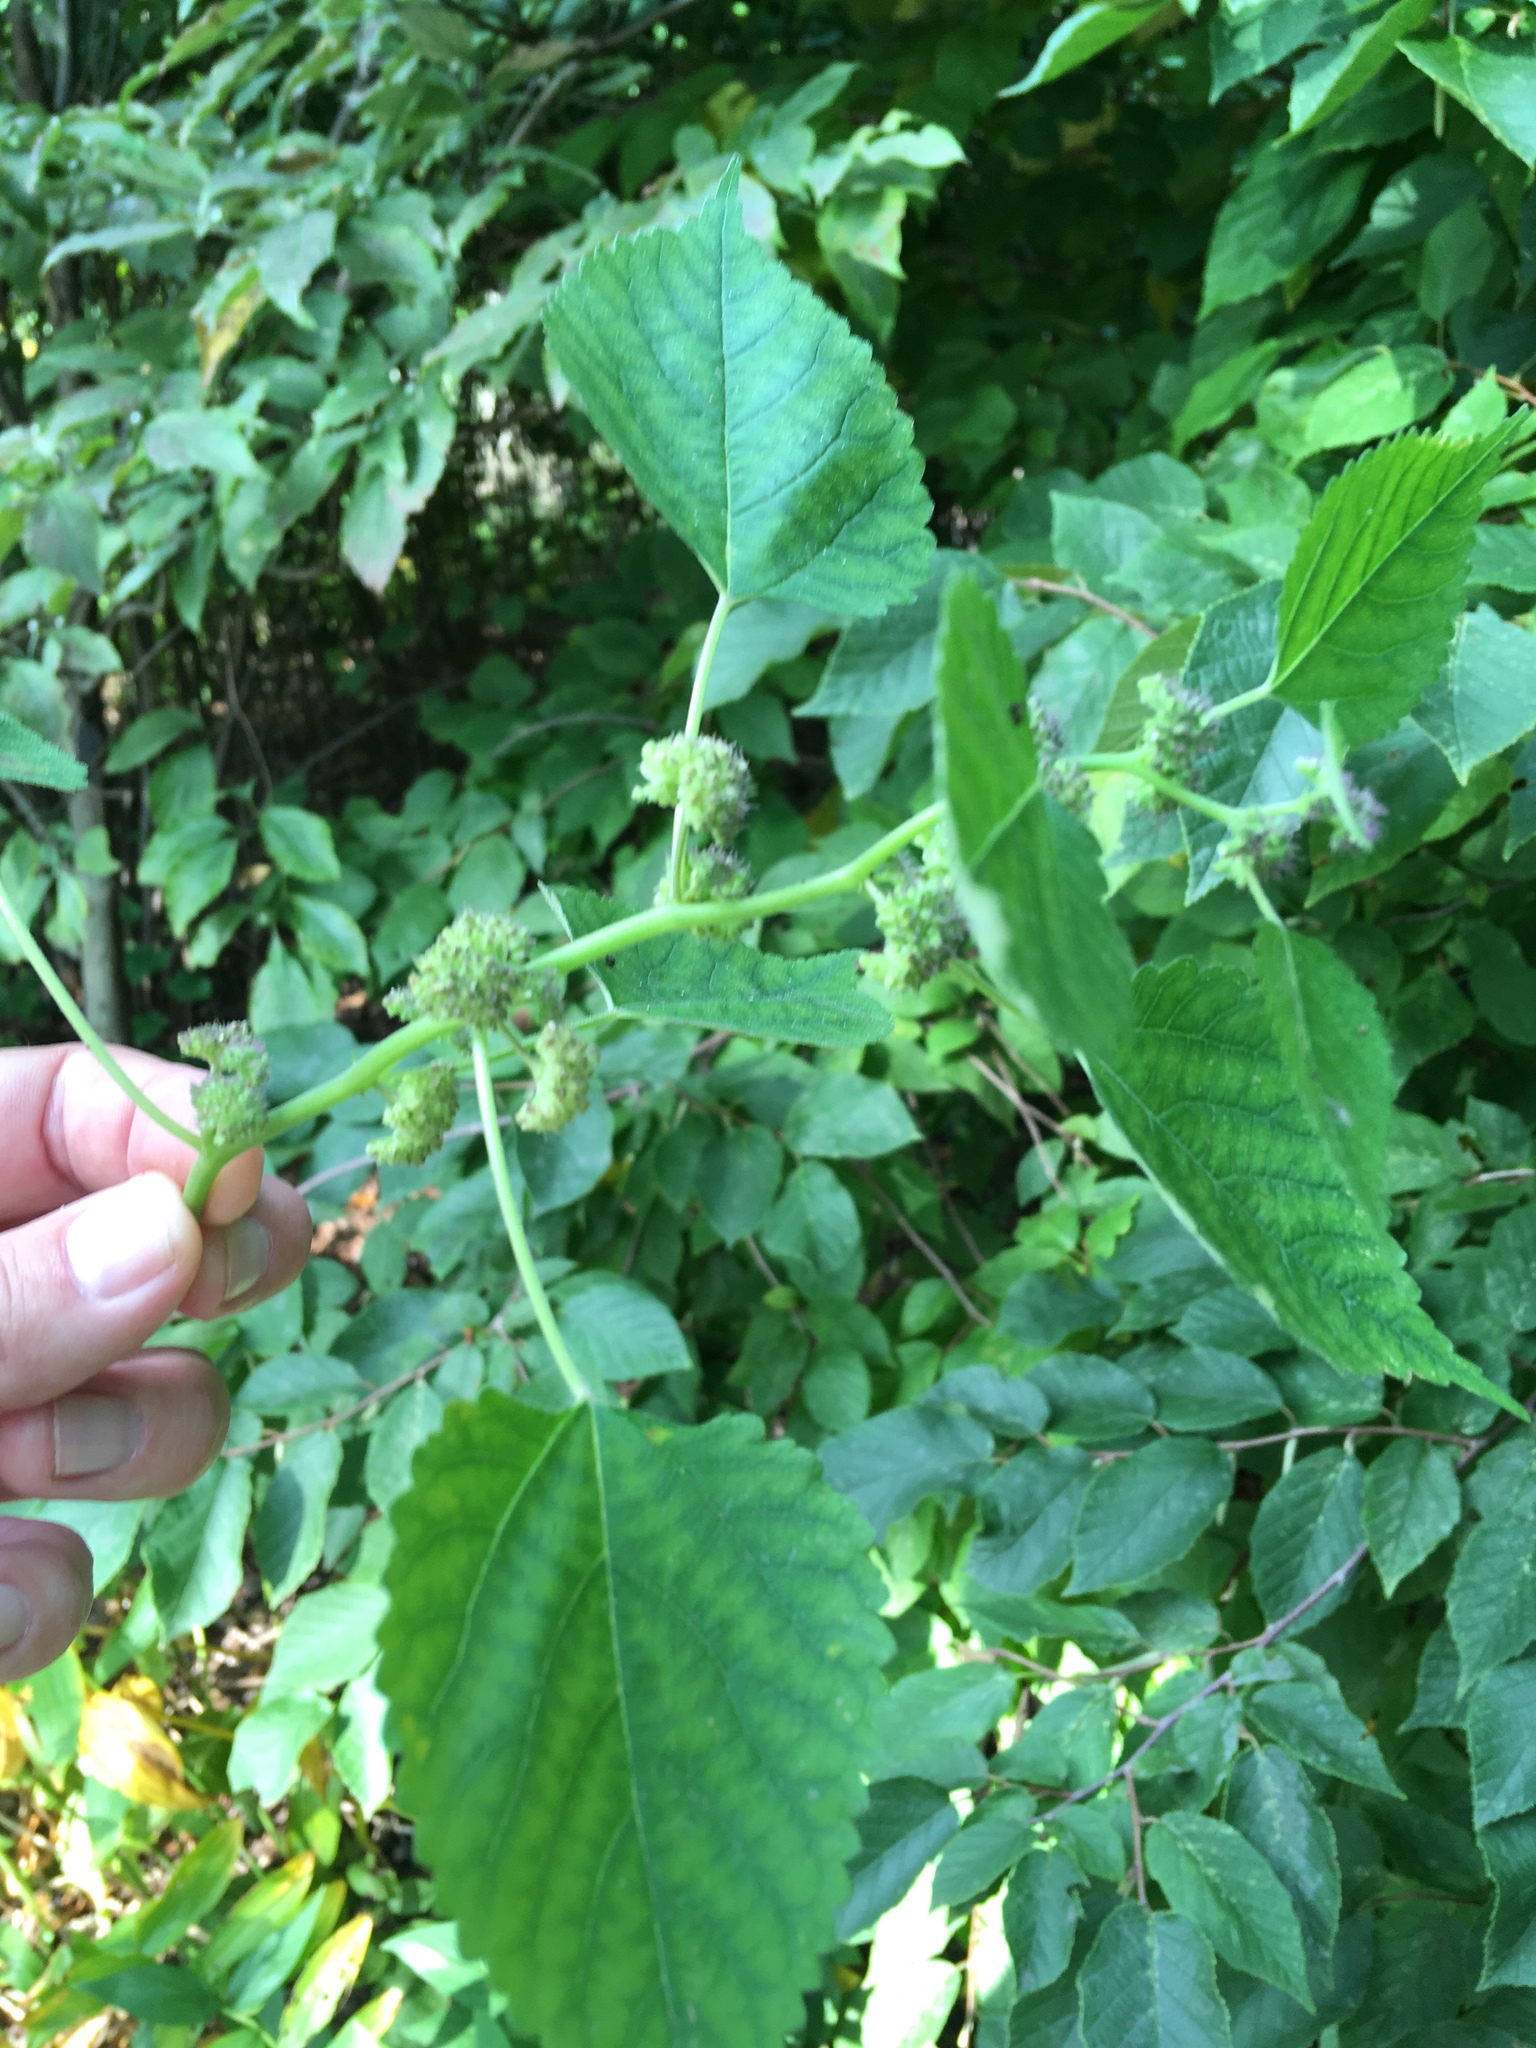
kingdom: Plantae
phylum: Tracheophyta
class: Magnoliopsida
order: Rosales
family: Moraceae
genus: Fatoua
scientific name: Fatoua villosa
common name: Hairy crabweed
